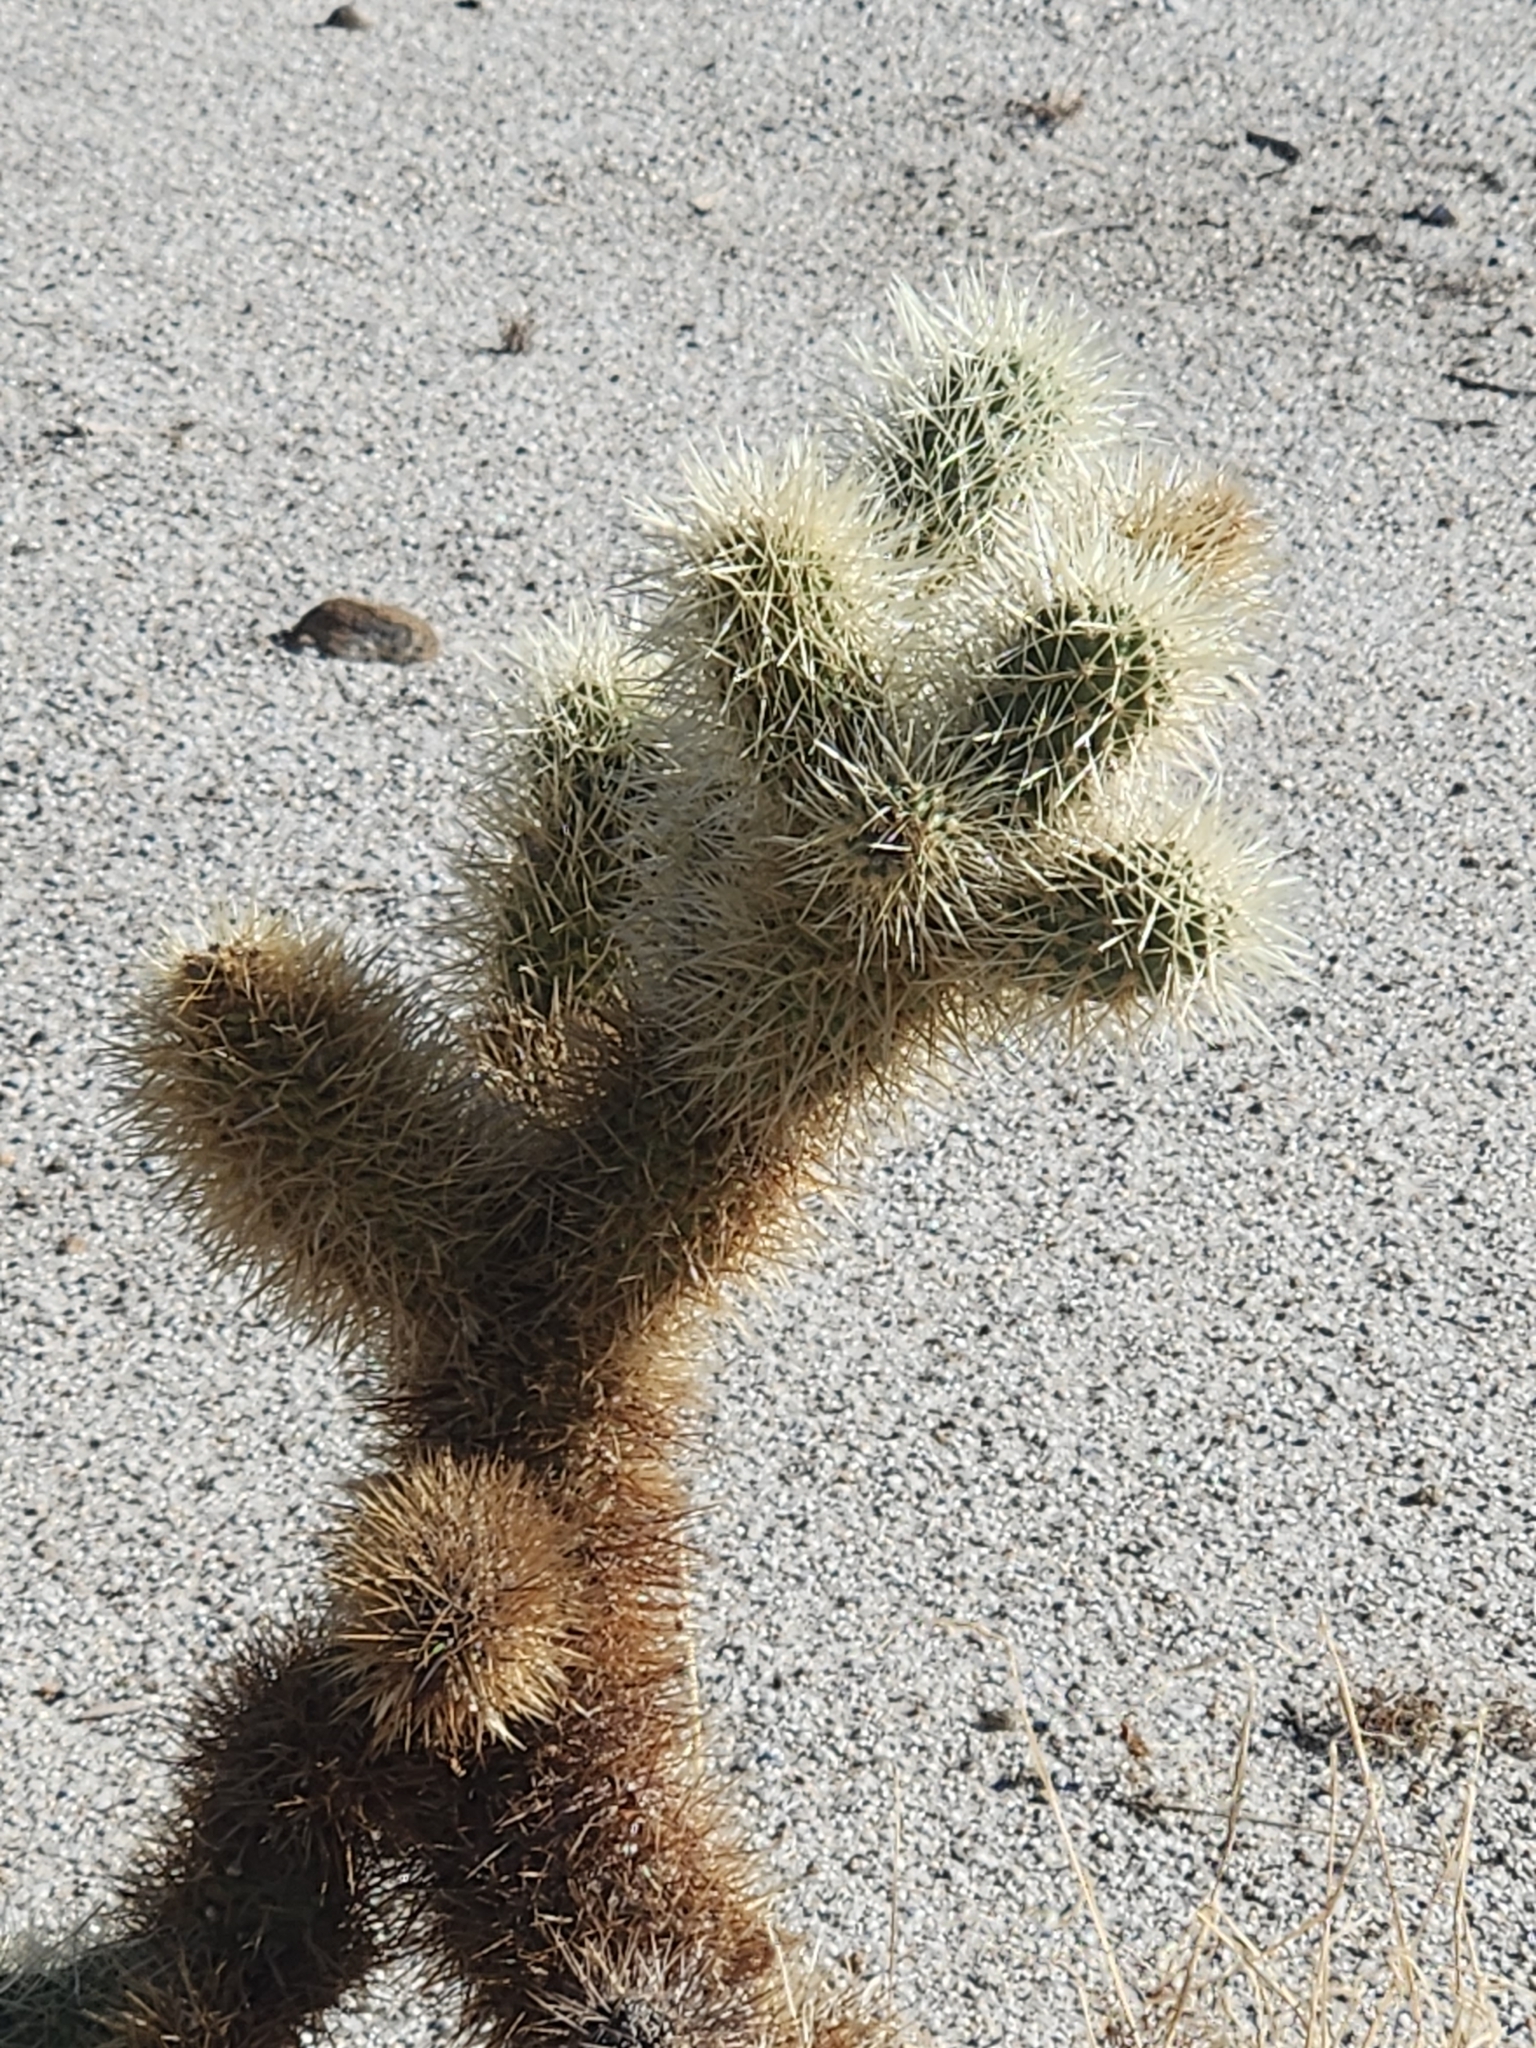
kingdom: Plantae
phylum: Tracheophyta
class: Magnoliopsida
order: Caryophyllales
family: Cactaceae
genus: Cylindropuntia
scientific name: Cylindropuntia fosbergii
